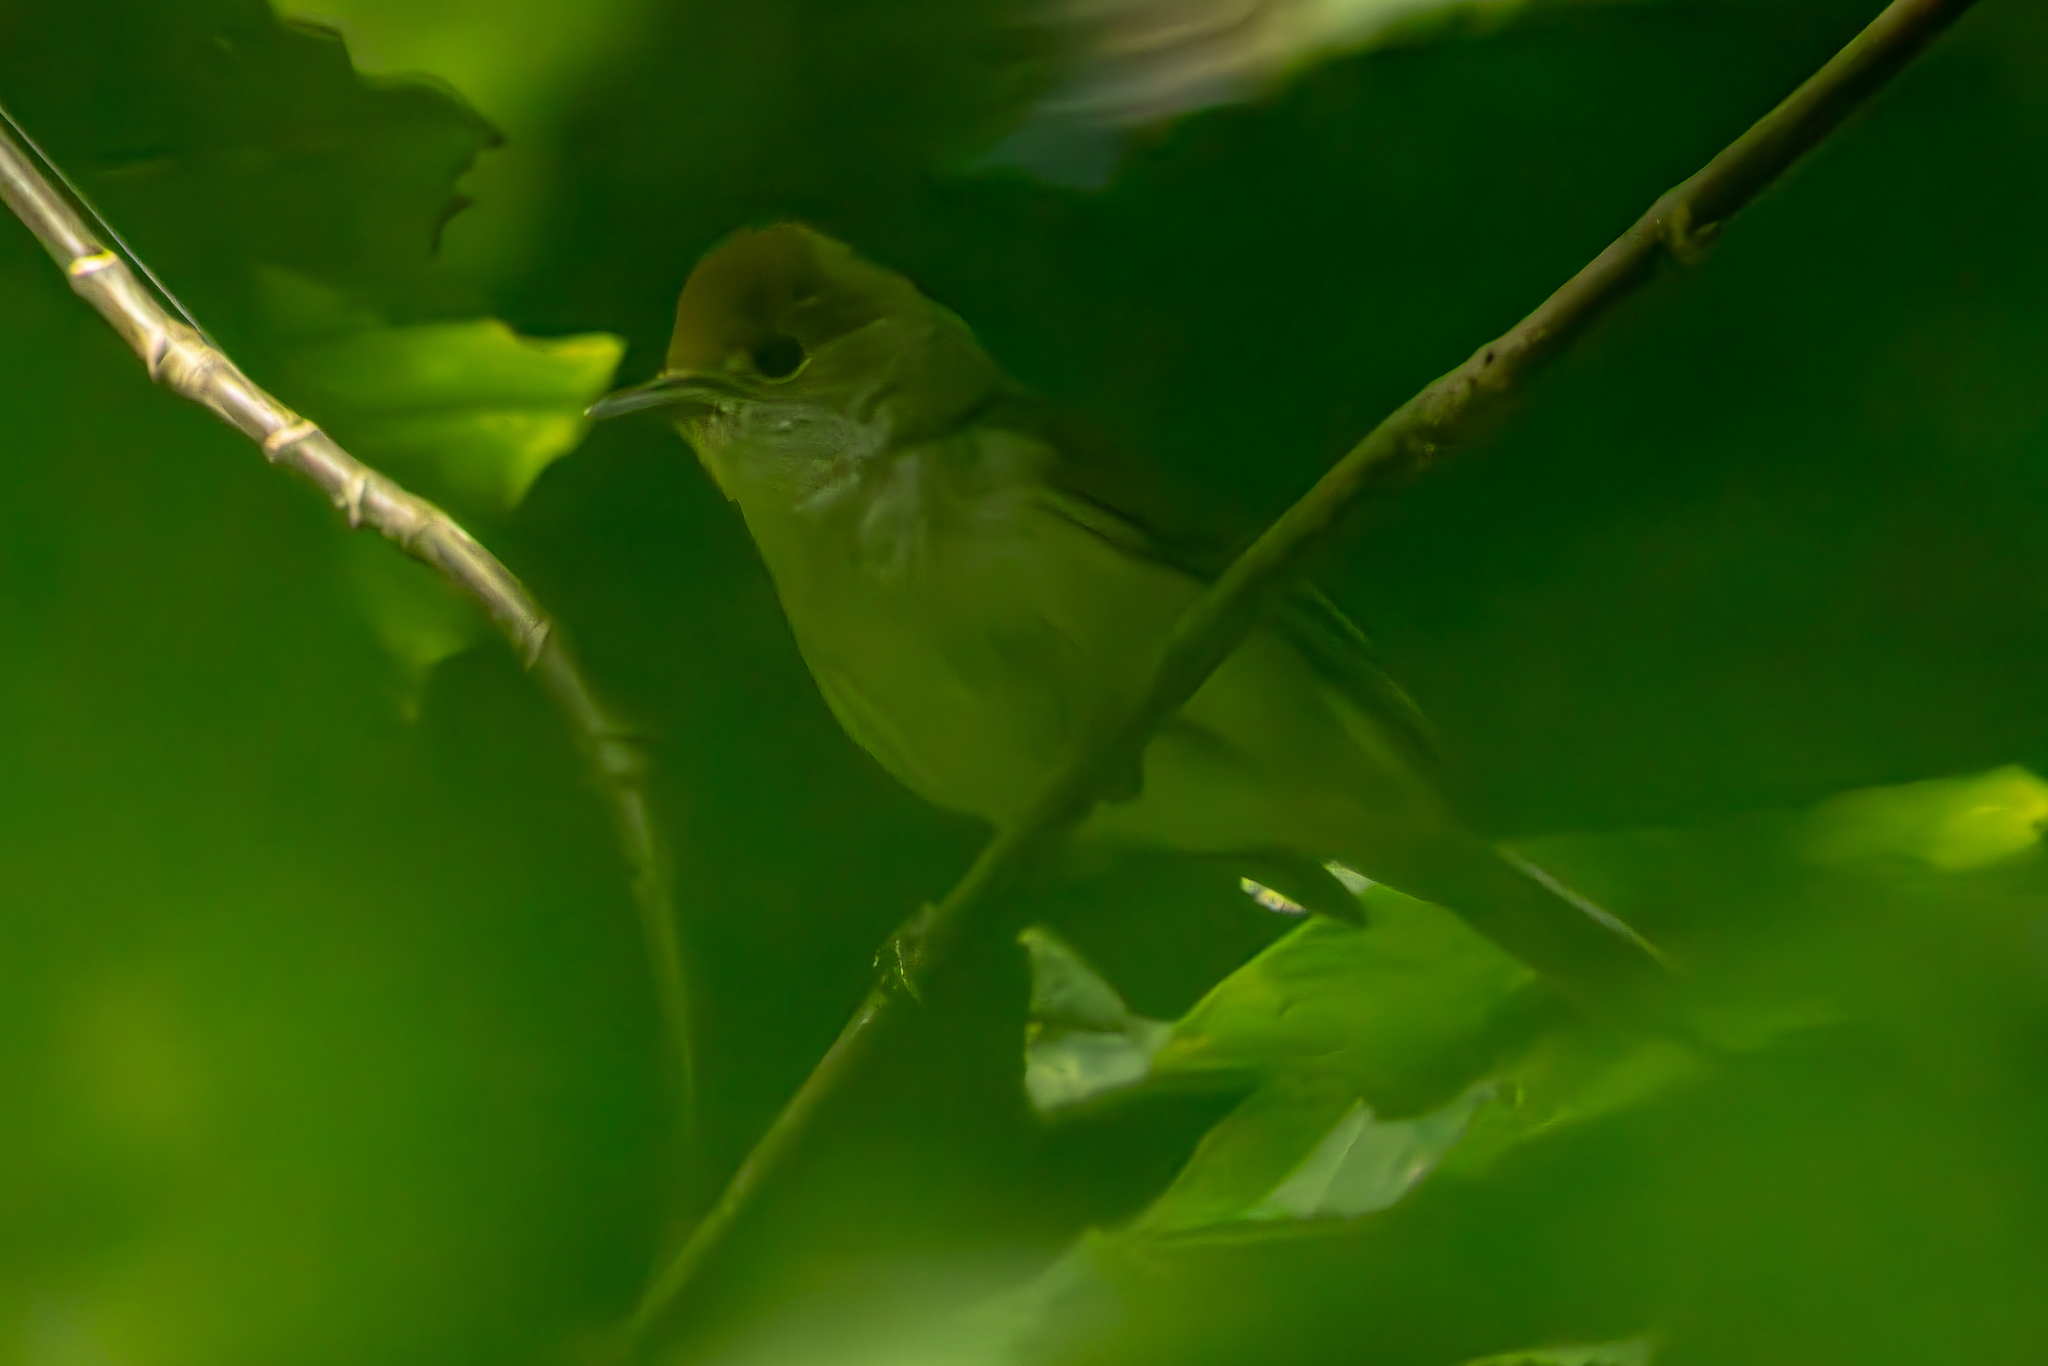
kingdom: Animalia
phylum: Chordata
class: Aves
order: Passeriformes
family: Sylviidae
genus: Sylvia
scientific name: Sylvia atricapilla
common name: Eurasian blackcap
